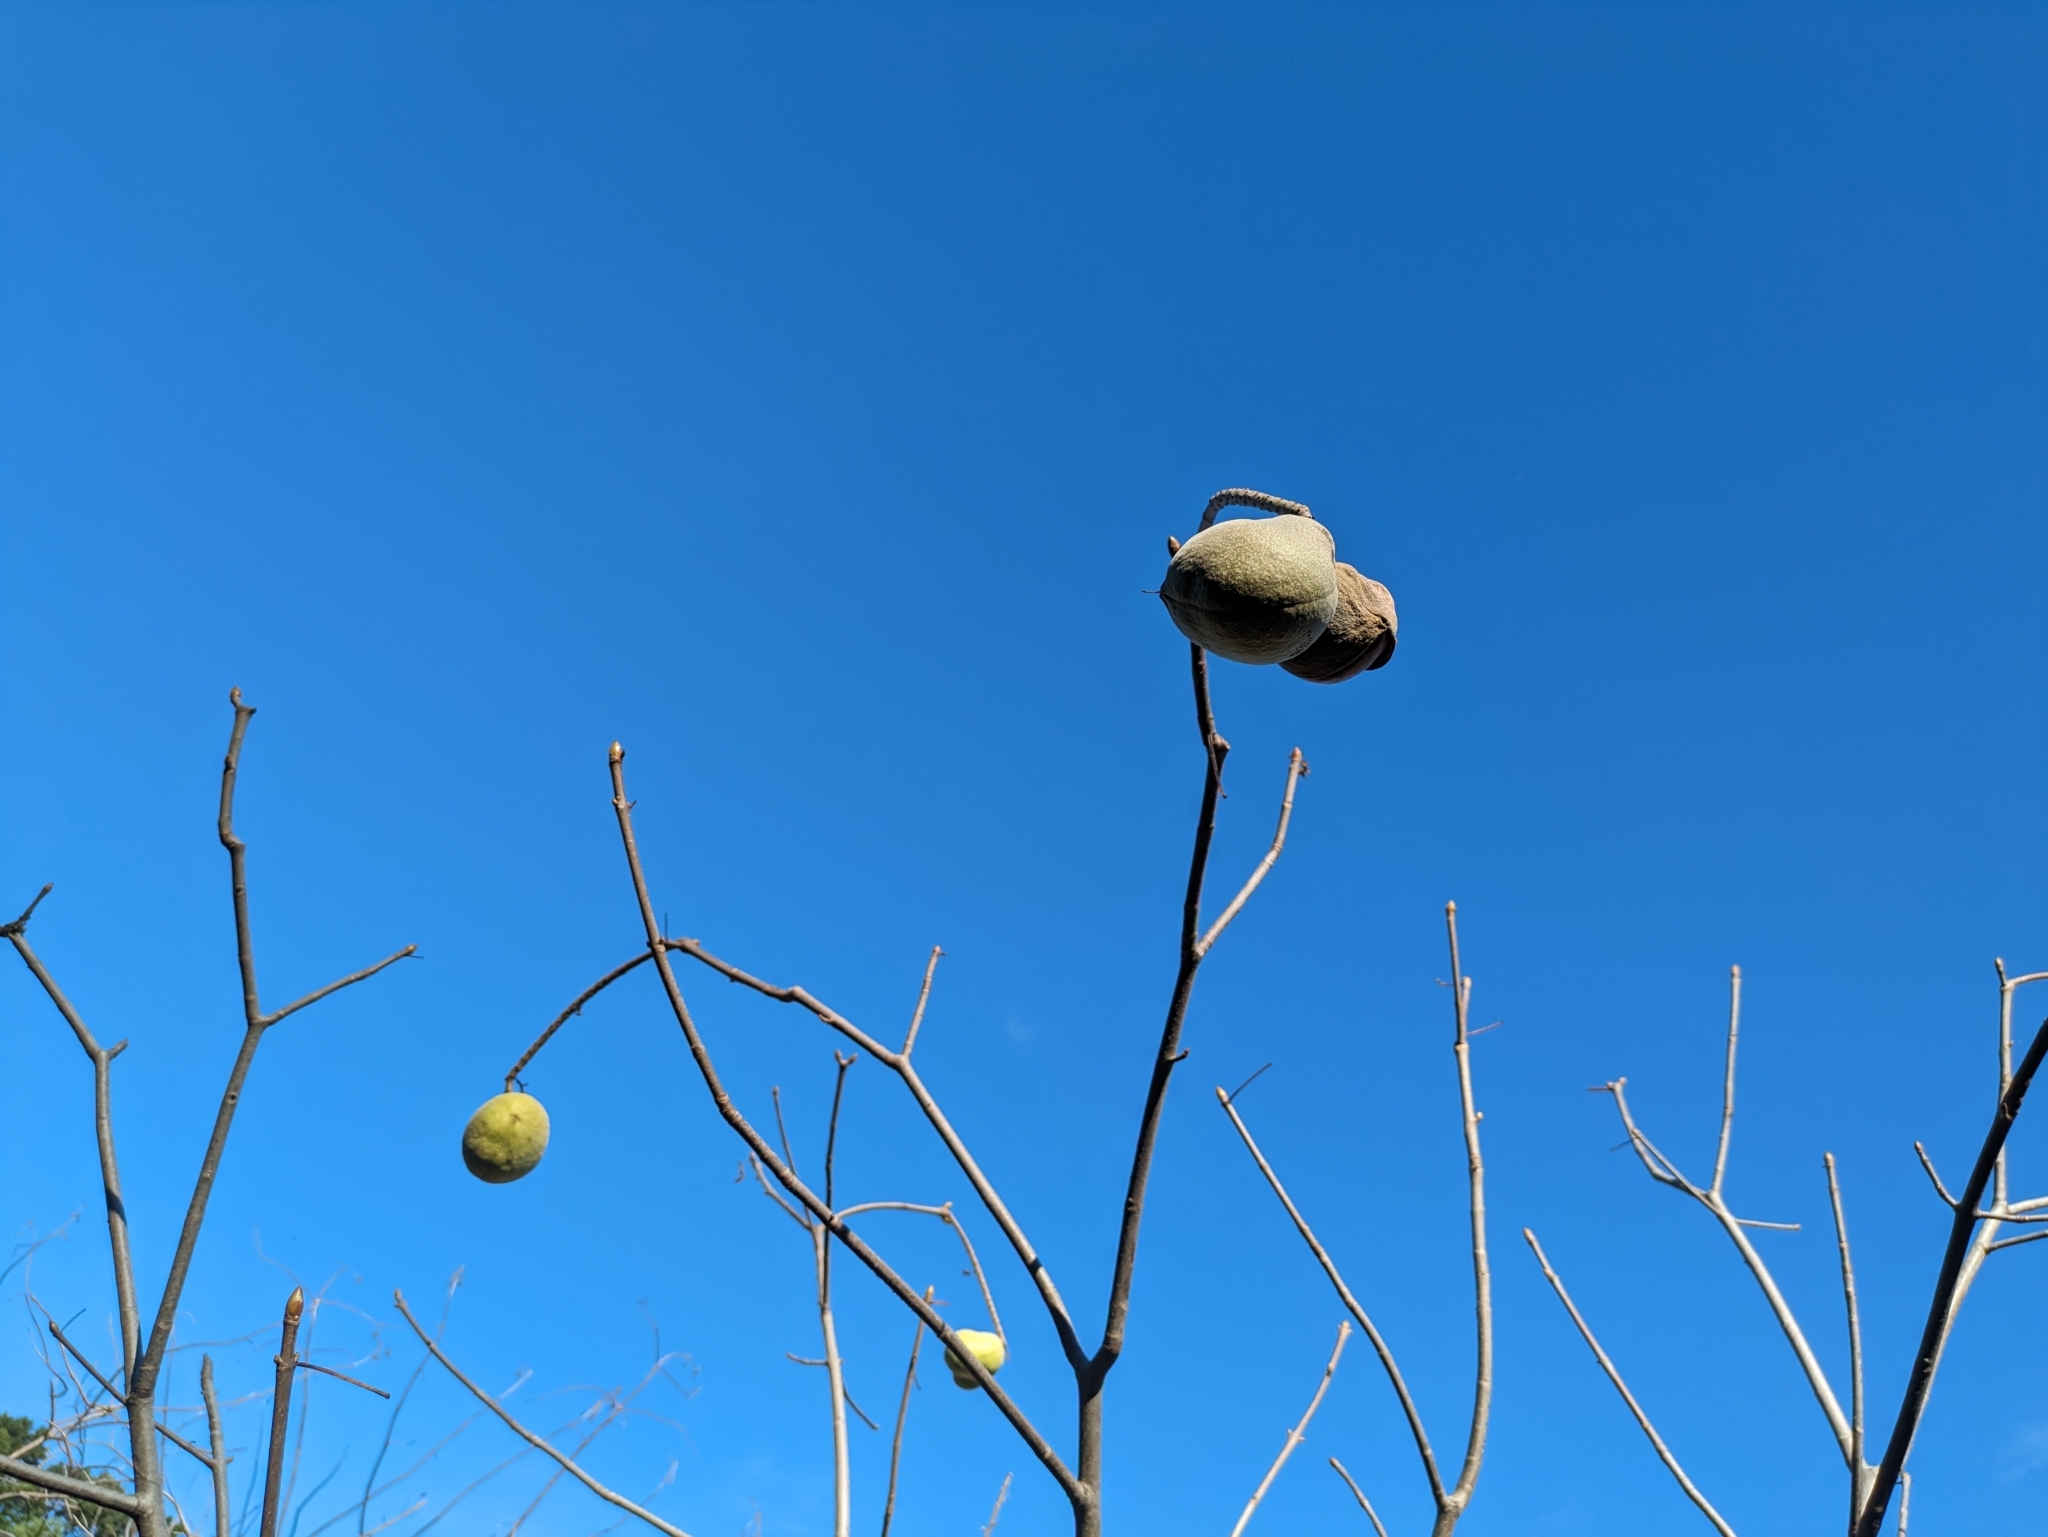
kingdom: Plantae
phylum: Tracheophyta
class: Magnoliopsida
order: Sapindales
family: Sapindaceae
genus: Aesculus
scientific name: Aesculus californica
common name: California buckeye
